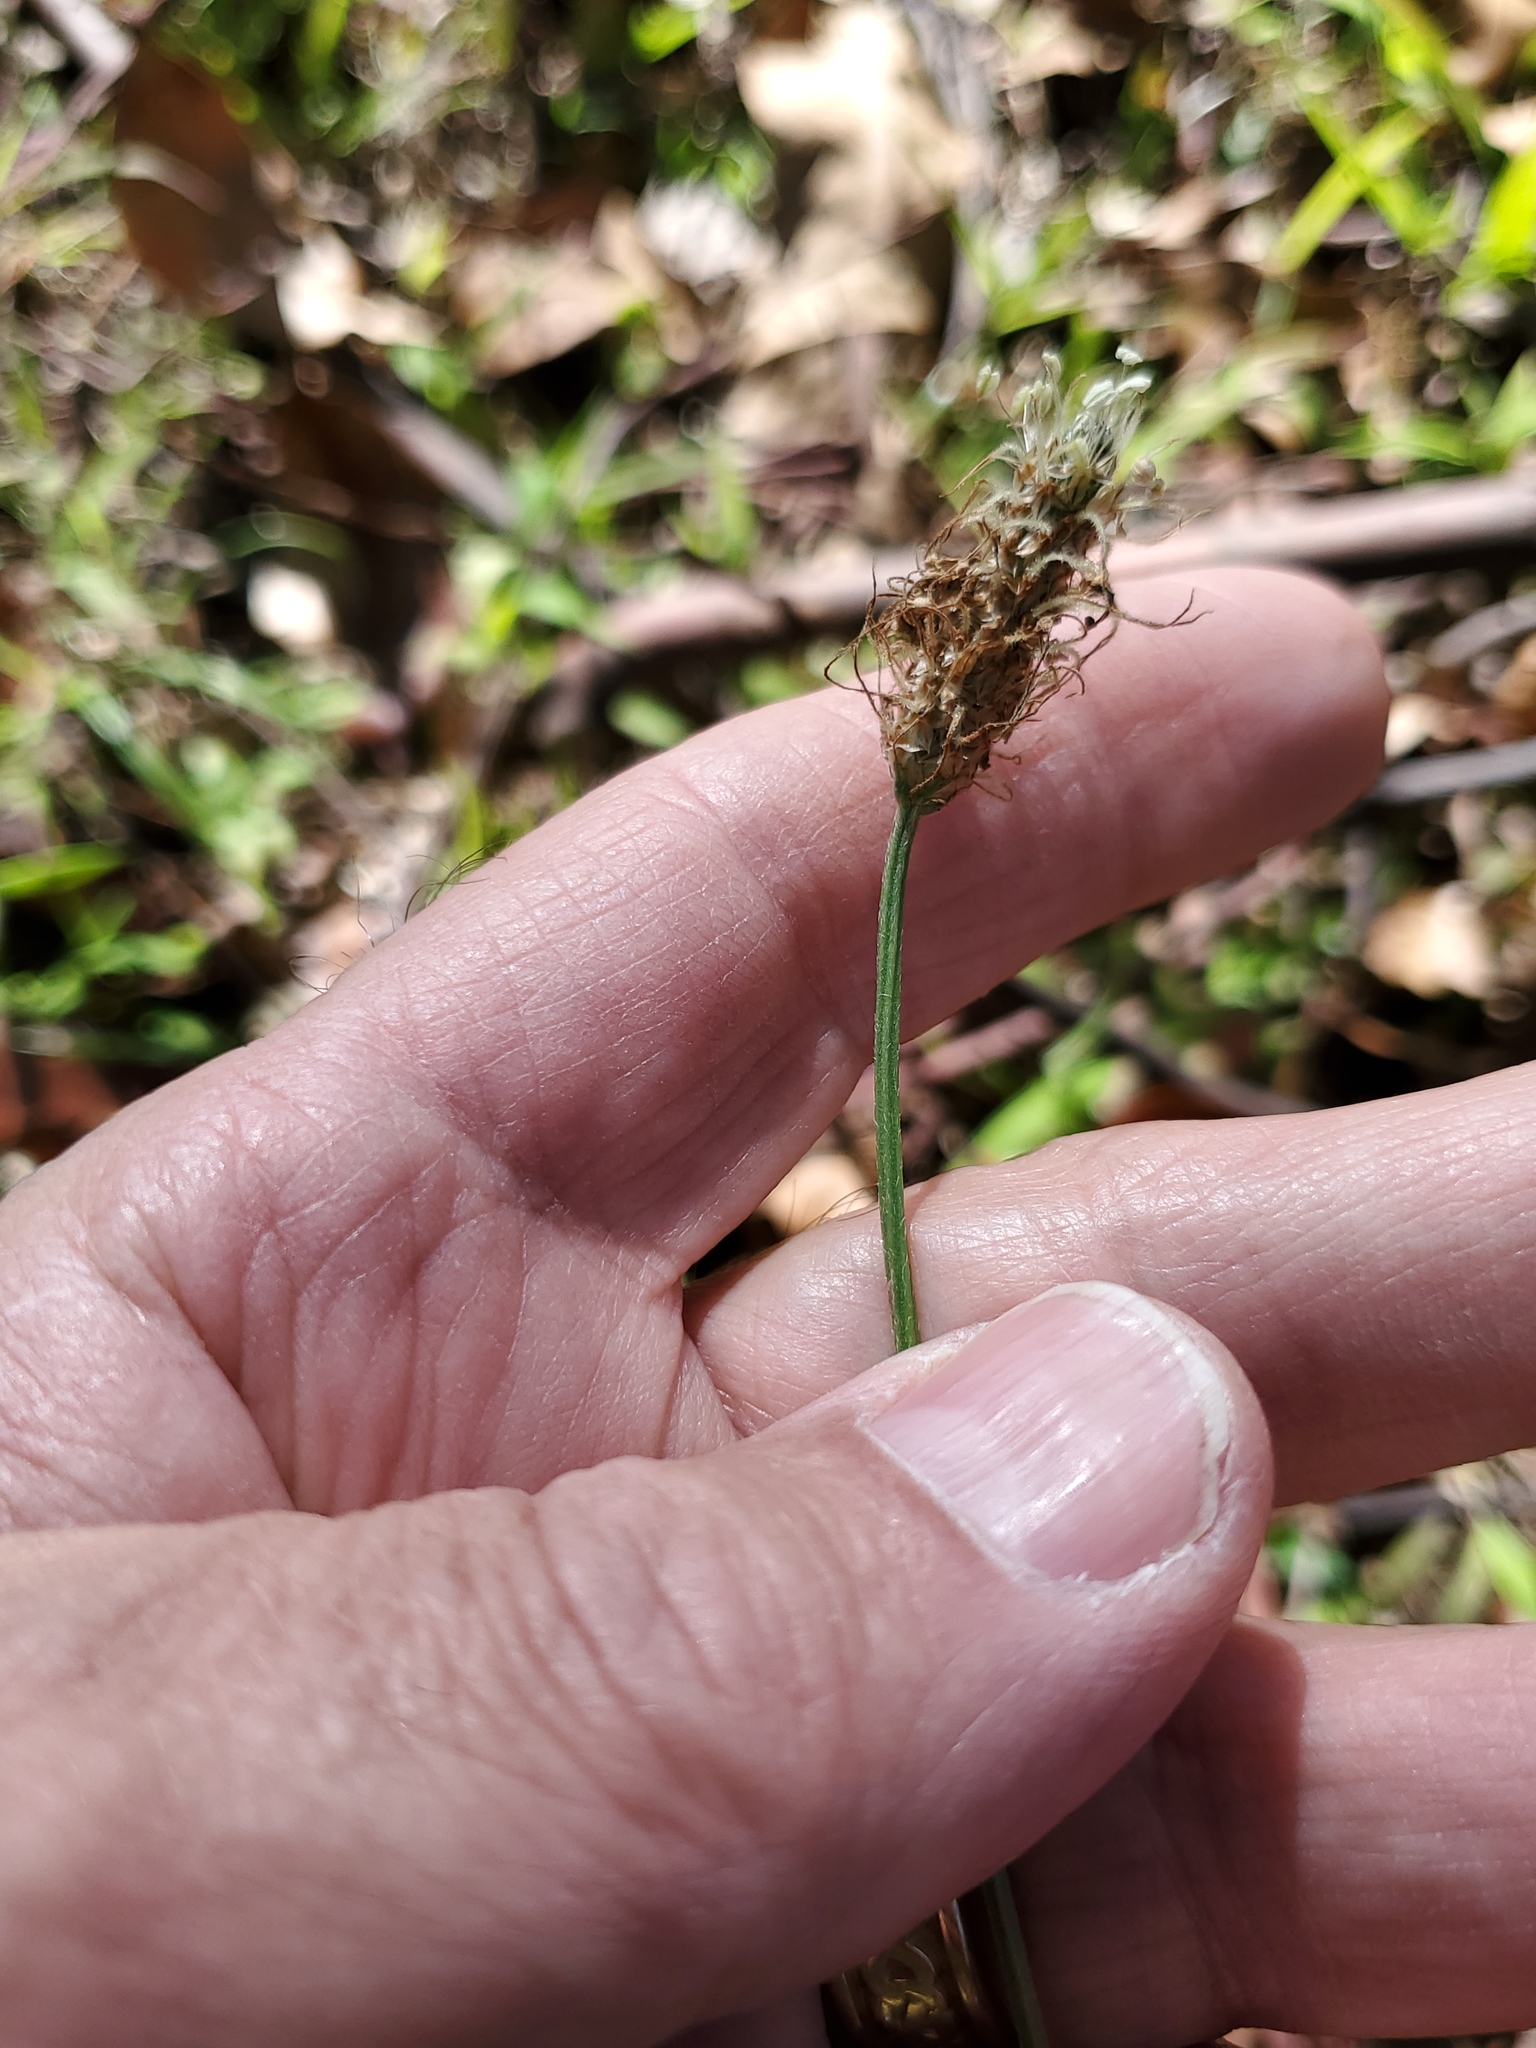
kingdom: Plantae
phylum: Tracheophyta
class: Magnoliopsida
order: Lamiales
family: Plantaginaceae
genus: Plantago
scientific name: Plantago lanceolata
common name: Ribwort plantain
